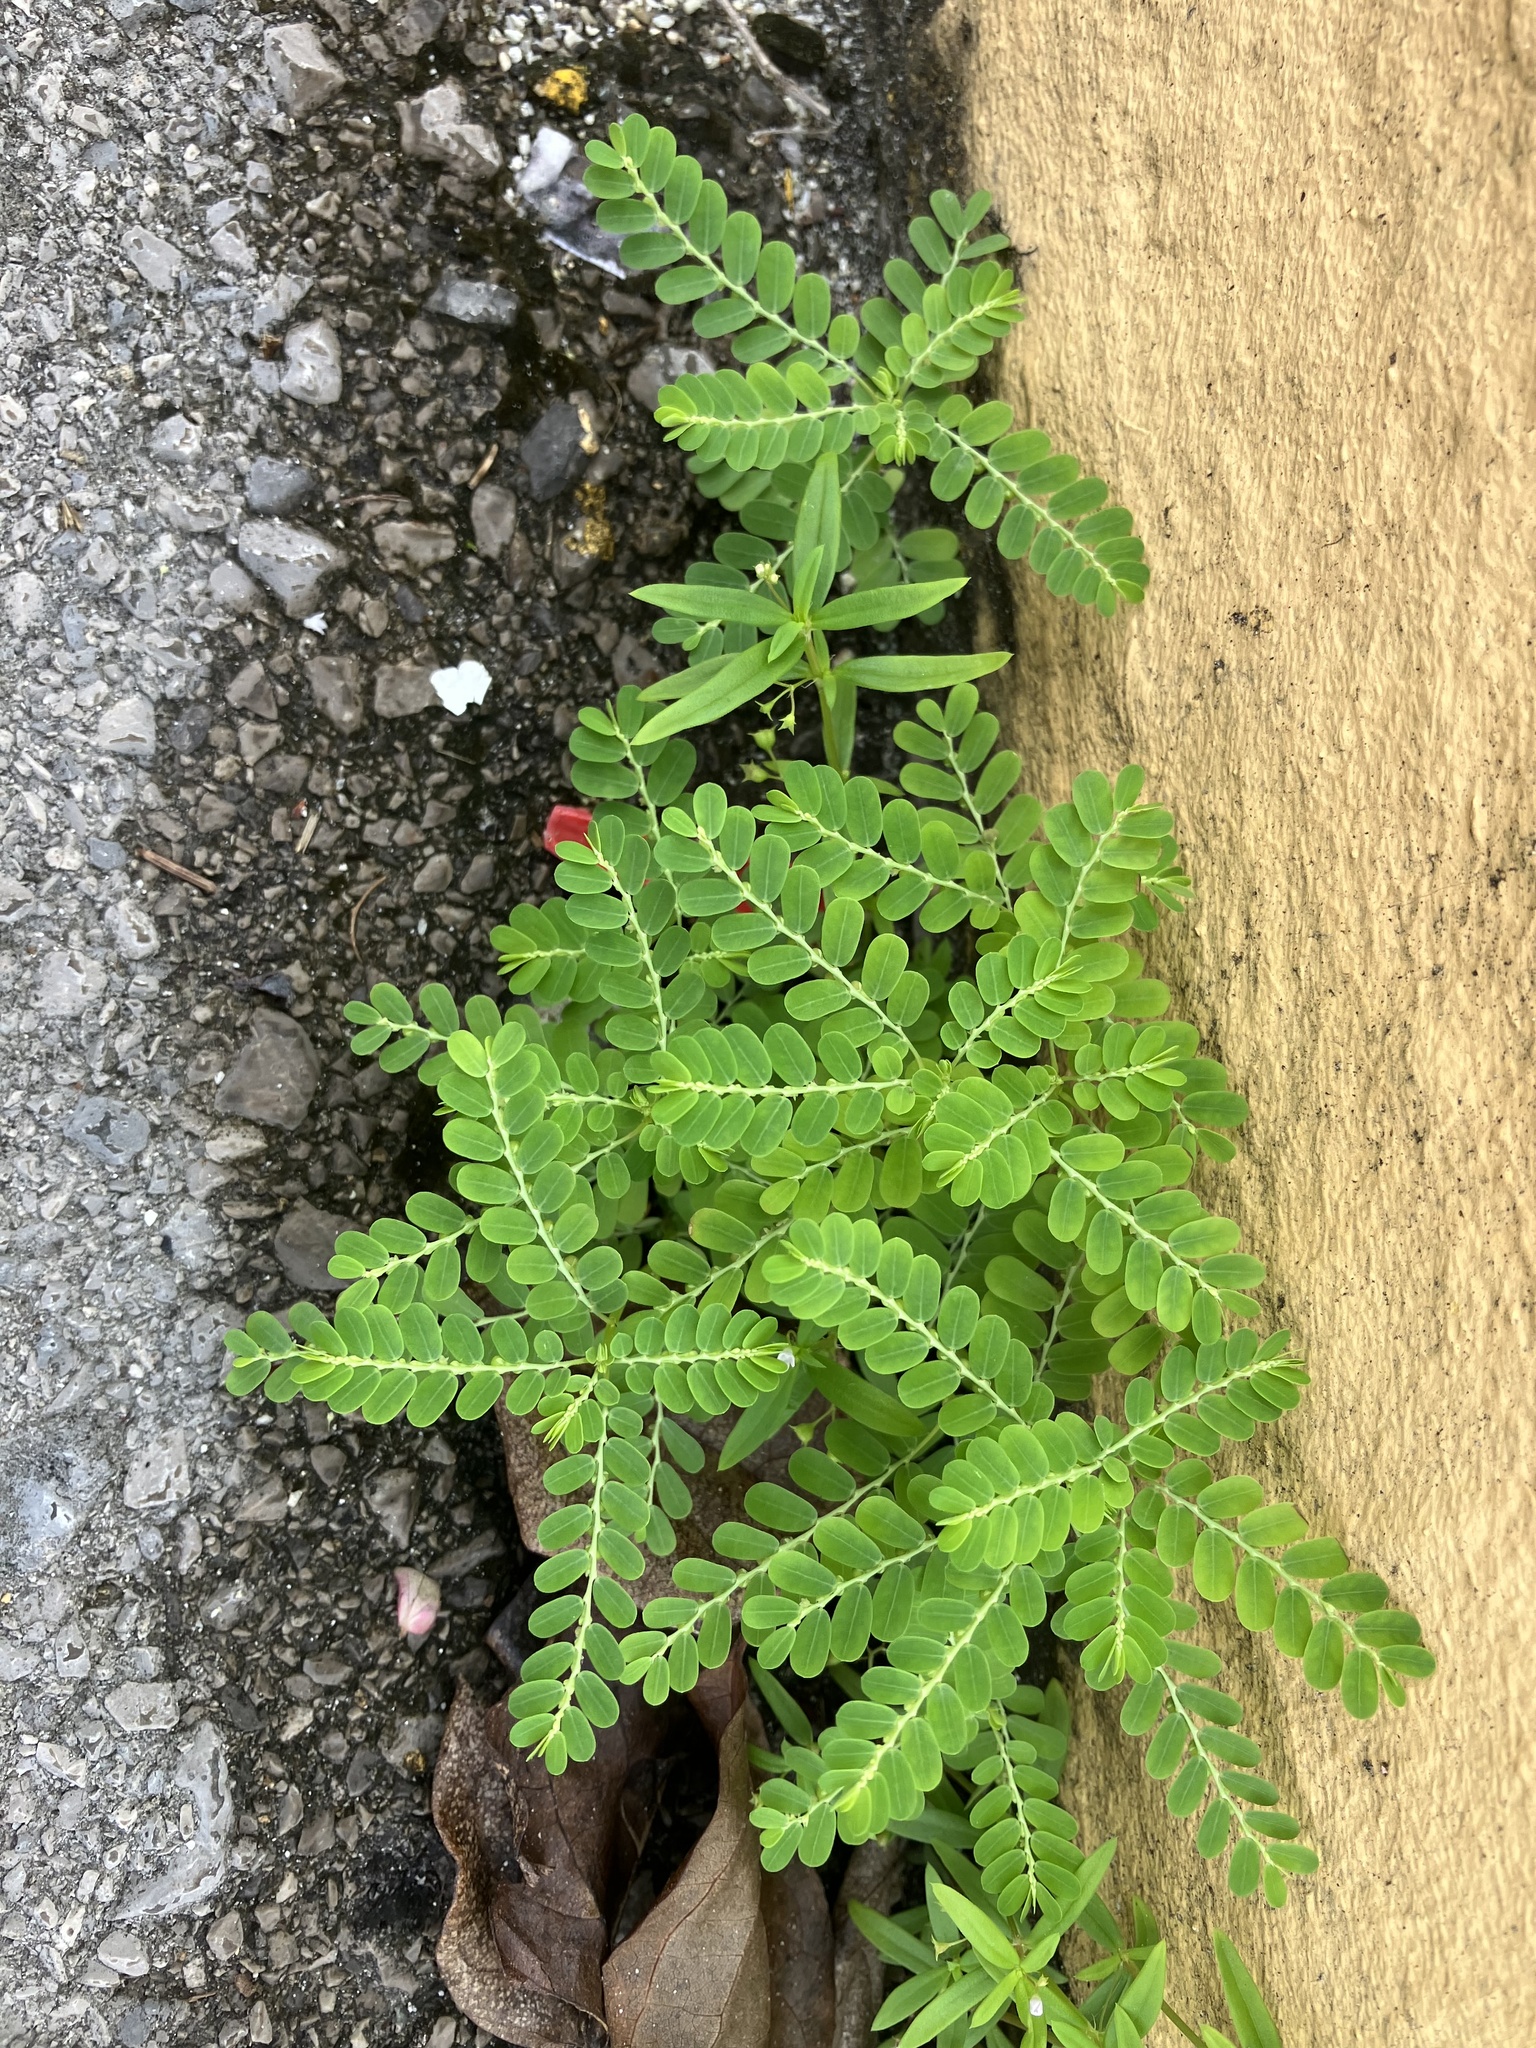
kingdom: Plantae
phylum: Tracheophyta
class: Magnoliopsida
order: Malpighiales
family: Phyllanthaceae
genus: Phyllanthus
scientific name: Phyllanthus amarus
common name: Carry me seed
